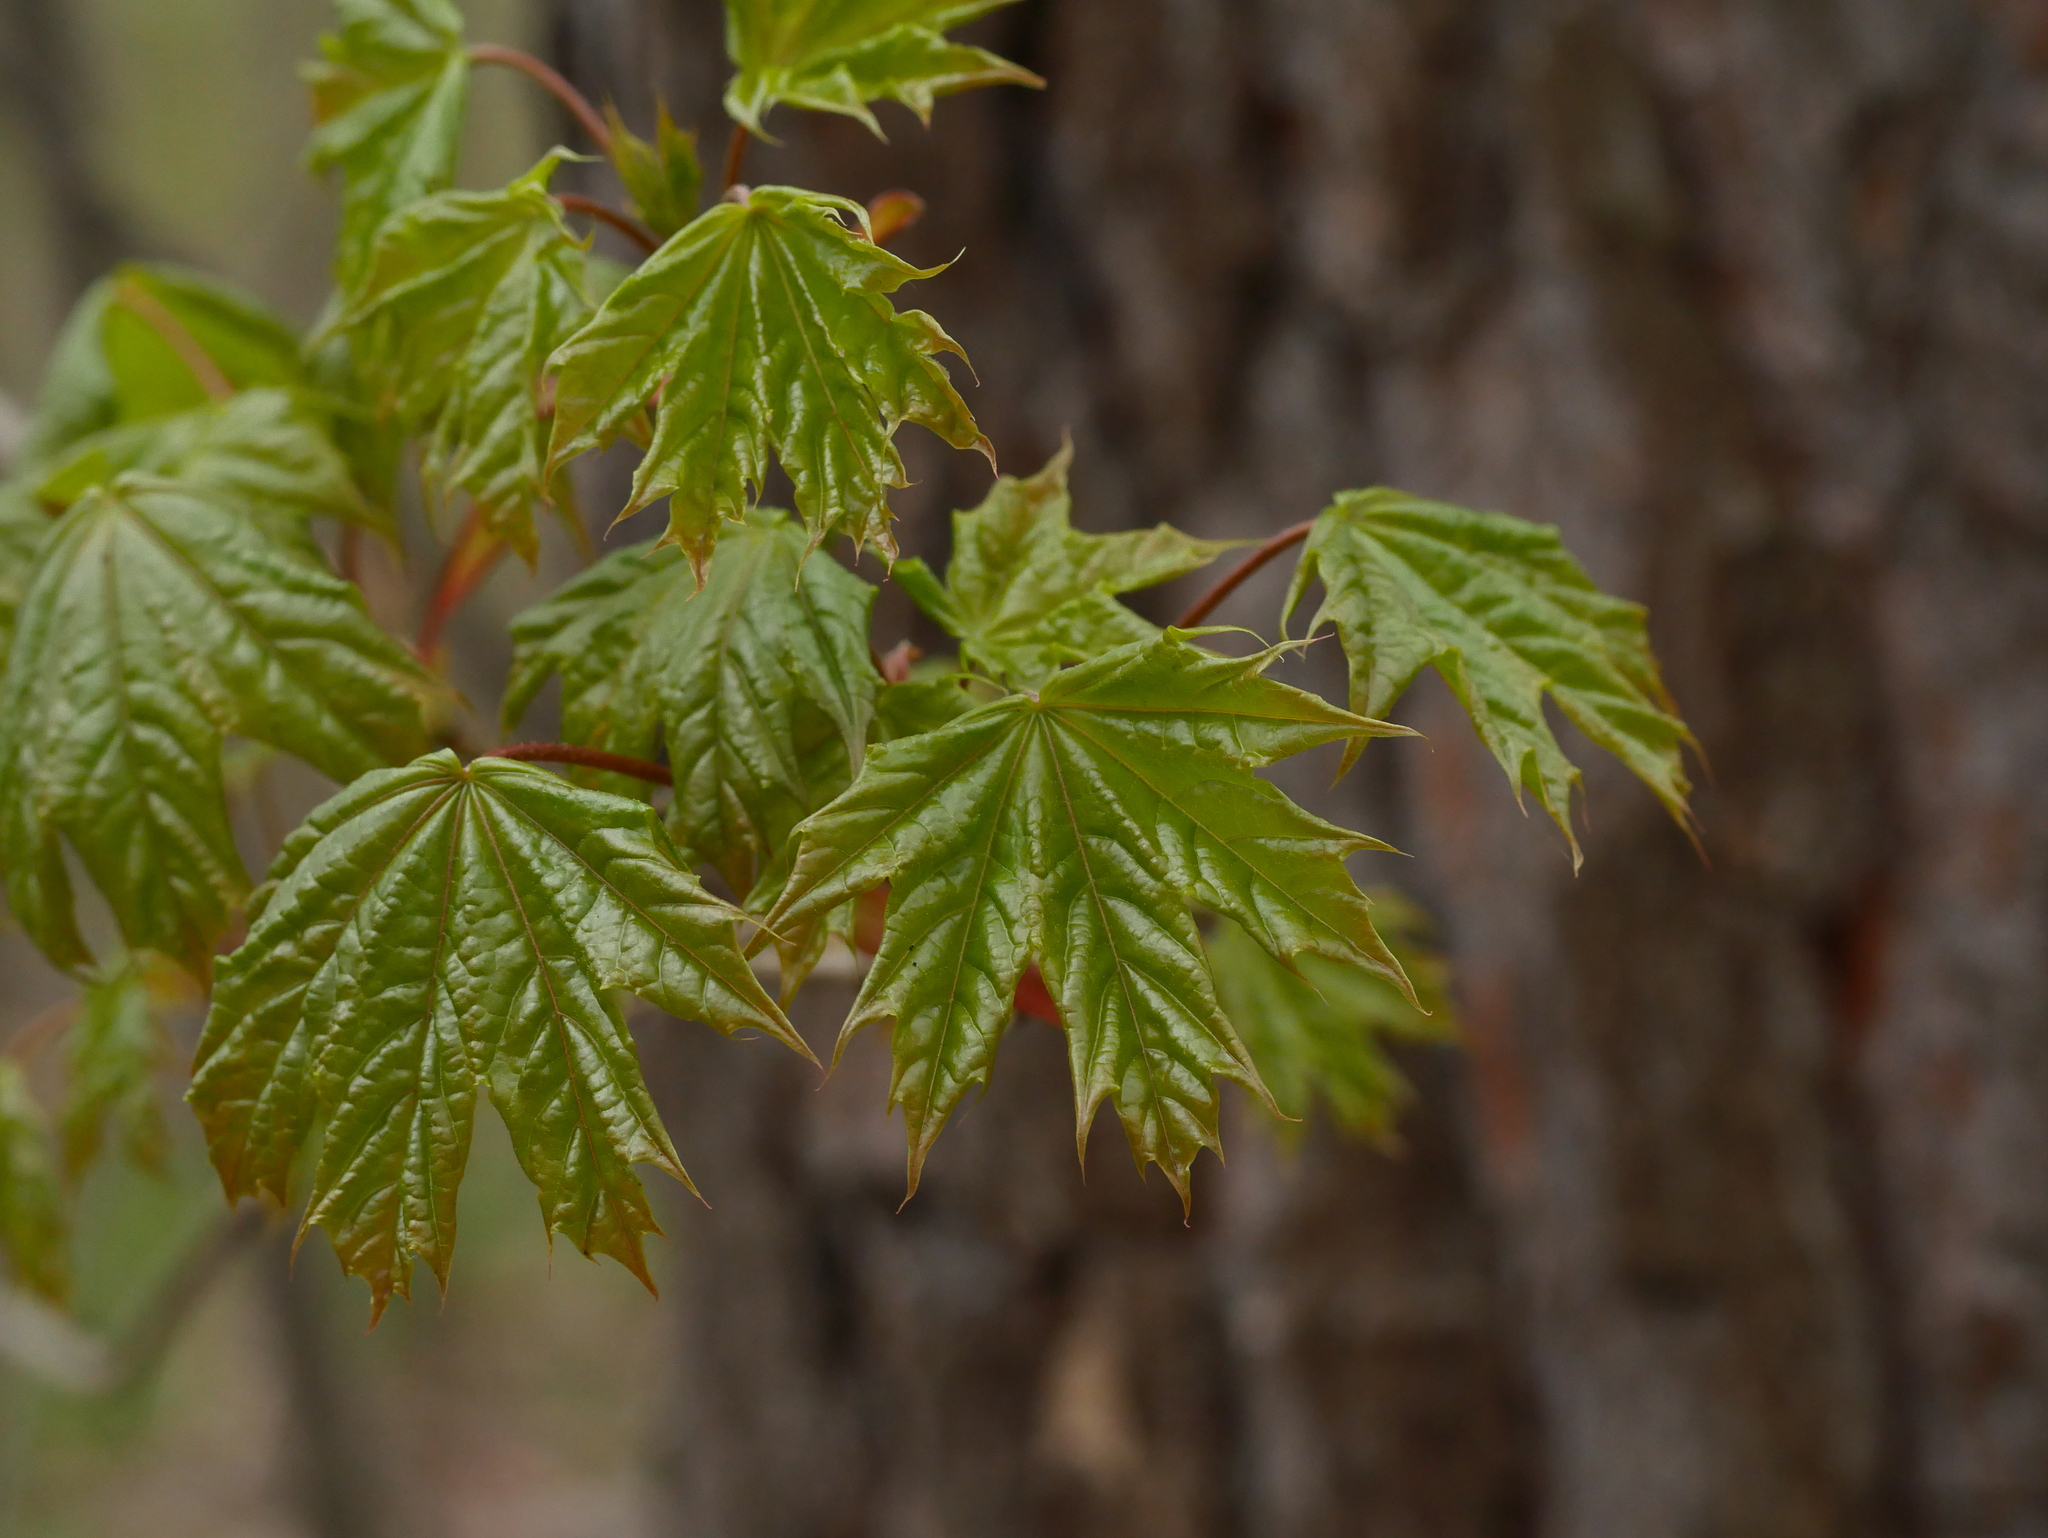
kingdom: Plantae
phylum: Tracheophyta
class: Magnoliopsida
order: Sapindales
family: Sapindaceae
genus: Acer
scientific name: Acer platanoides
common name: Norway maple
